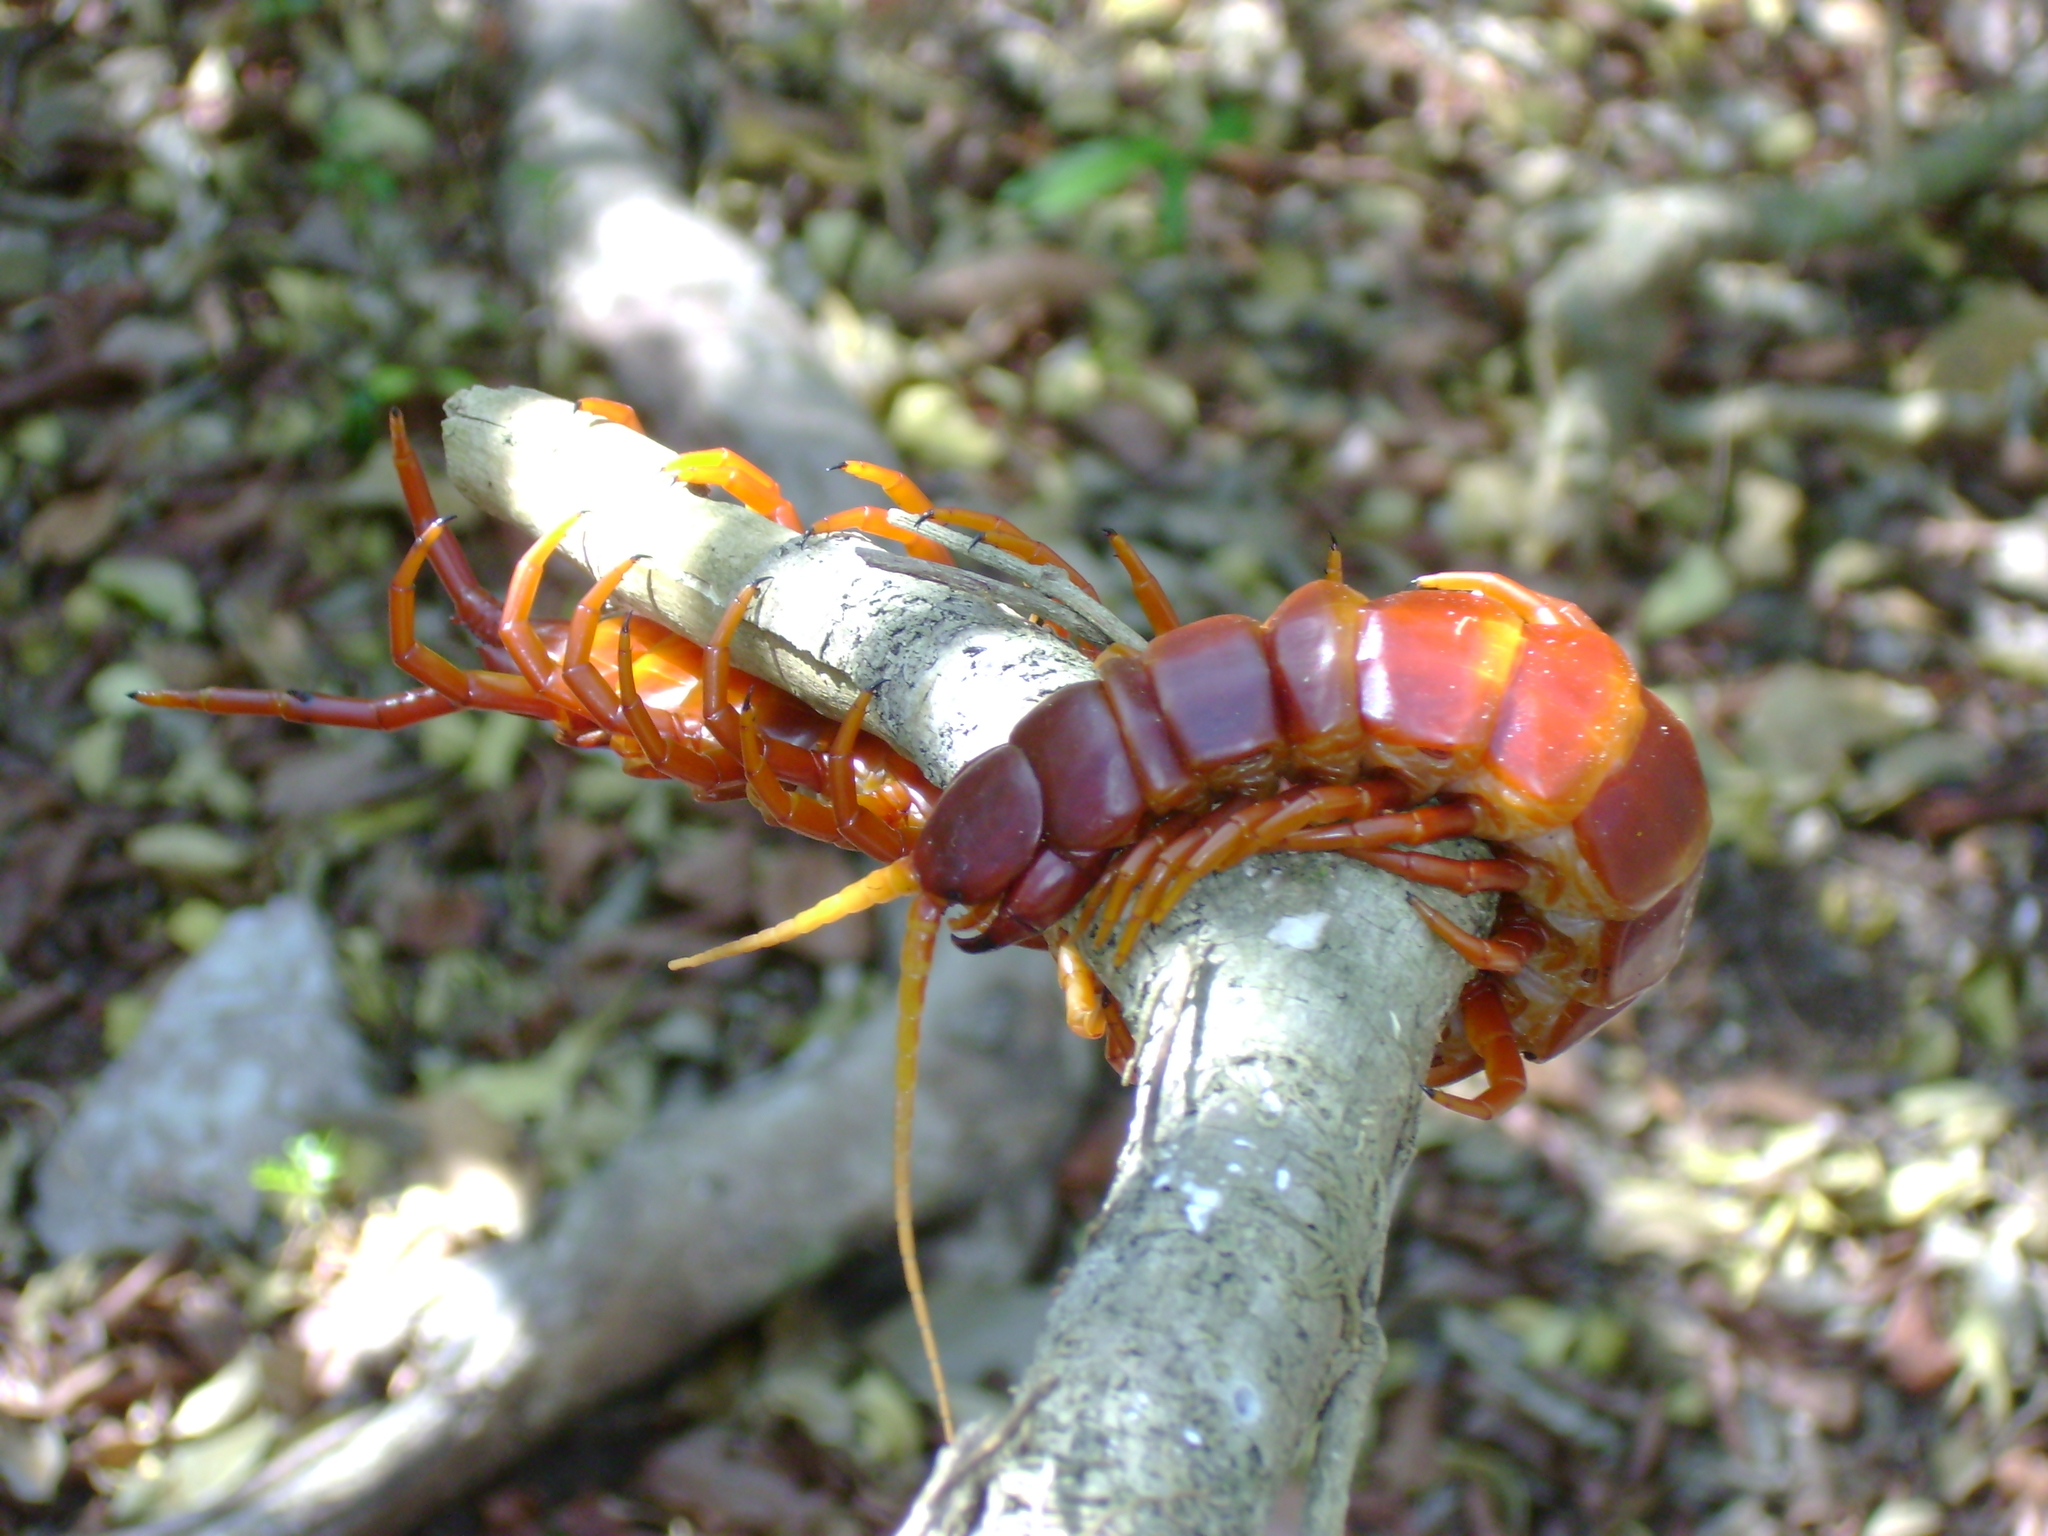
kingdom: Animalia
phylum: Arthropoda
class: Chilopoda
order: Scolopendromorpha
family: Scolopendridae
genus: Scolopendra
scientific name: Scolopendra alternans
